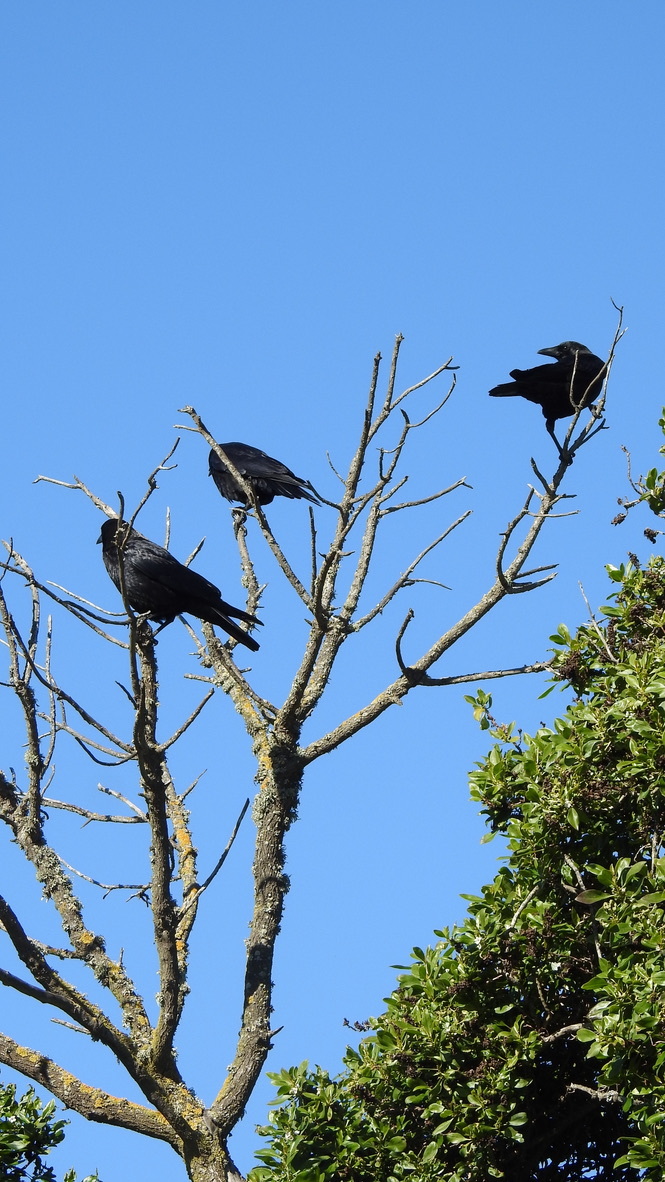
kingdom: Animalia
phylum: Chordata
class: Aves
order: Passeriformes
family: Corvidae
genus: Corvus
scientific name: Corvus brachyrhynchos
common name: American crow
